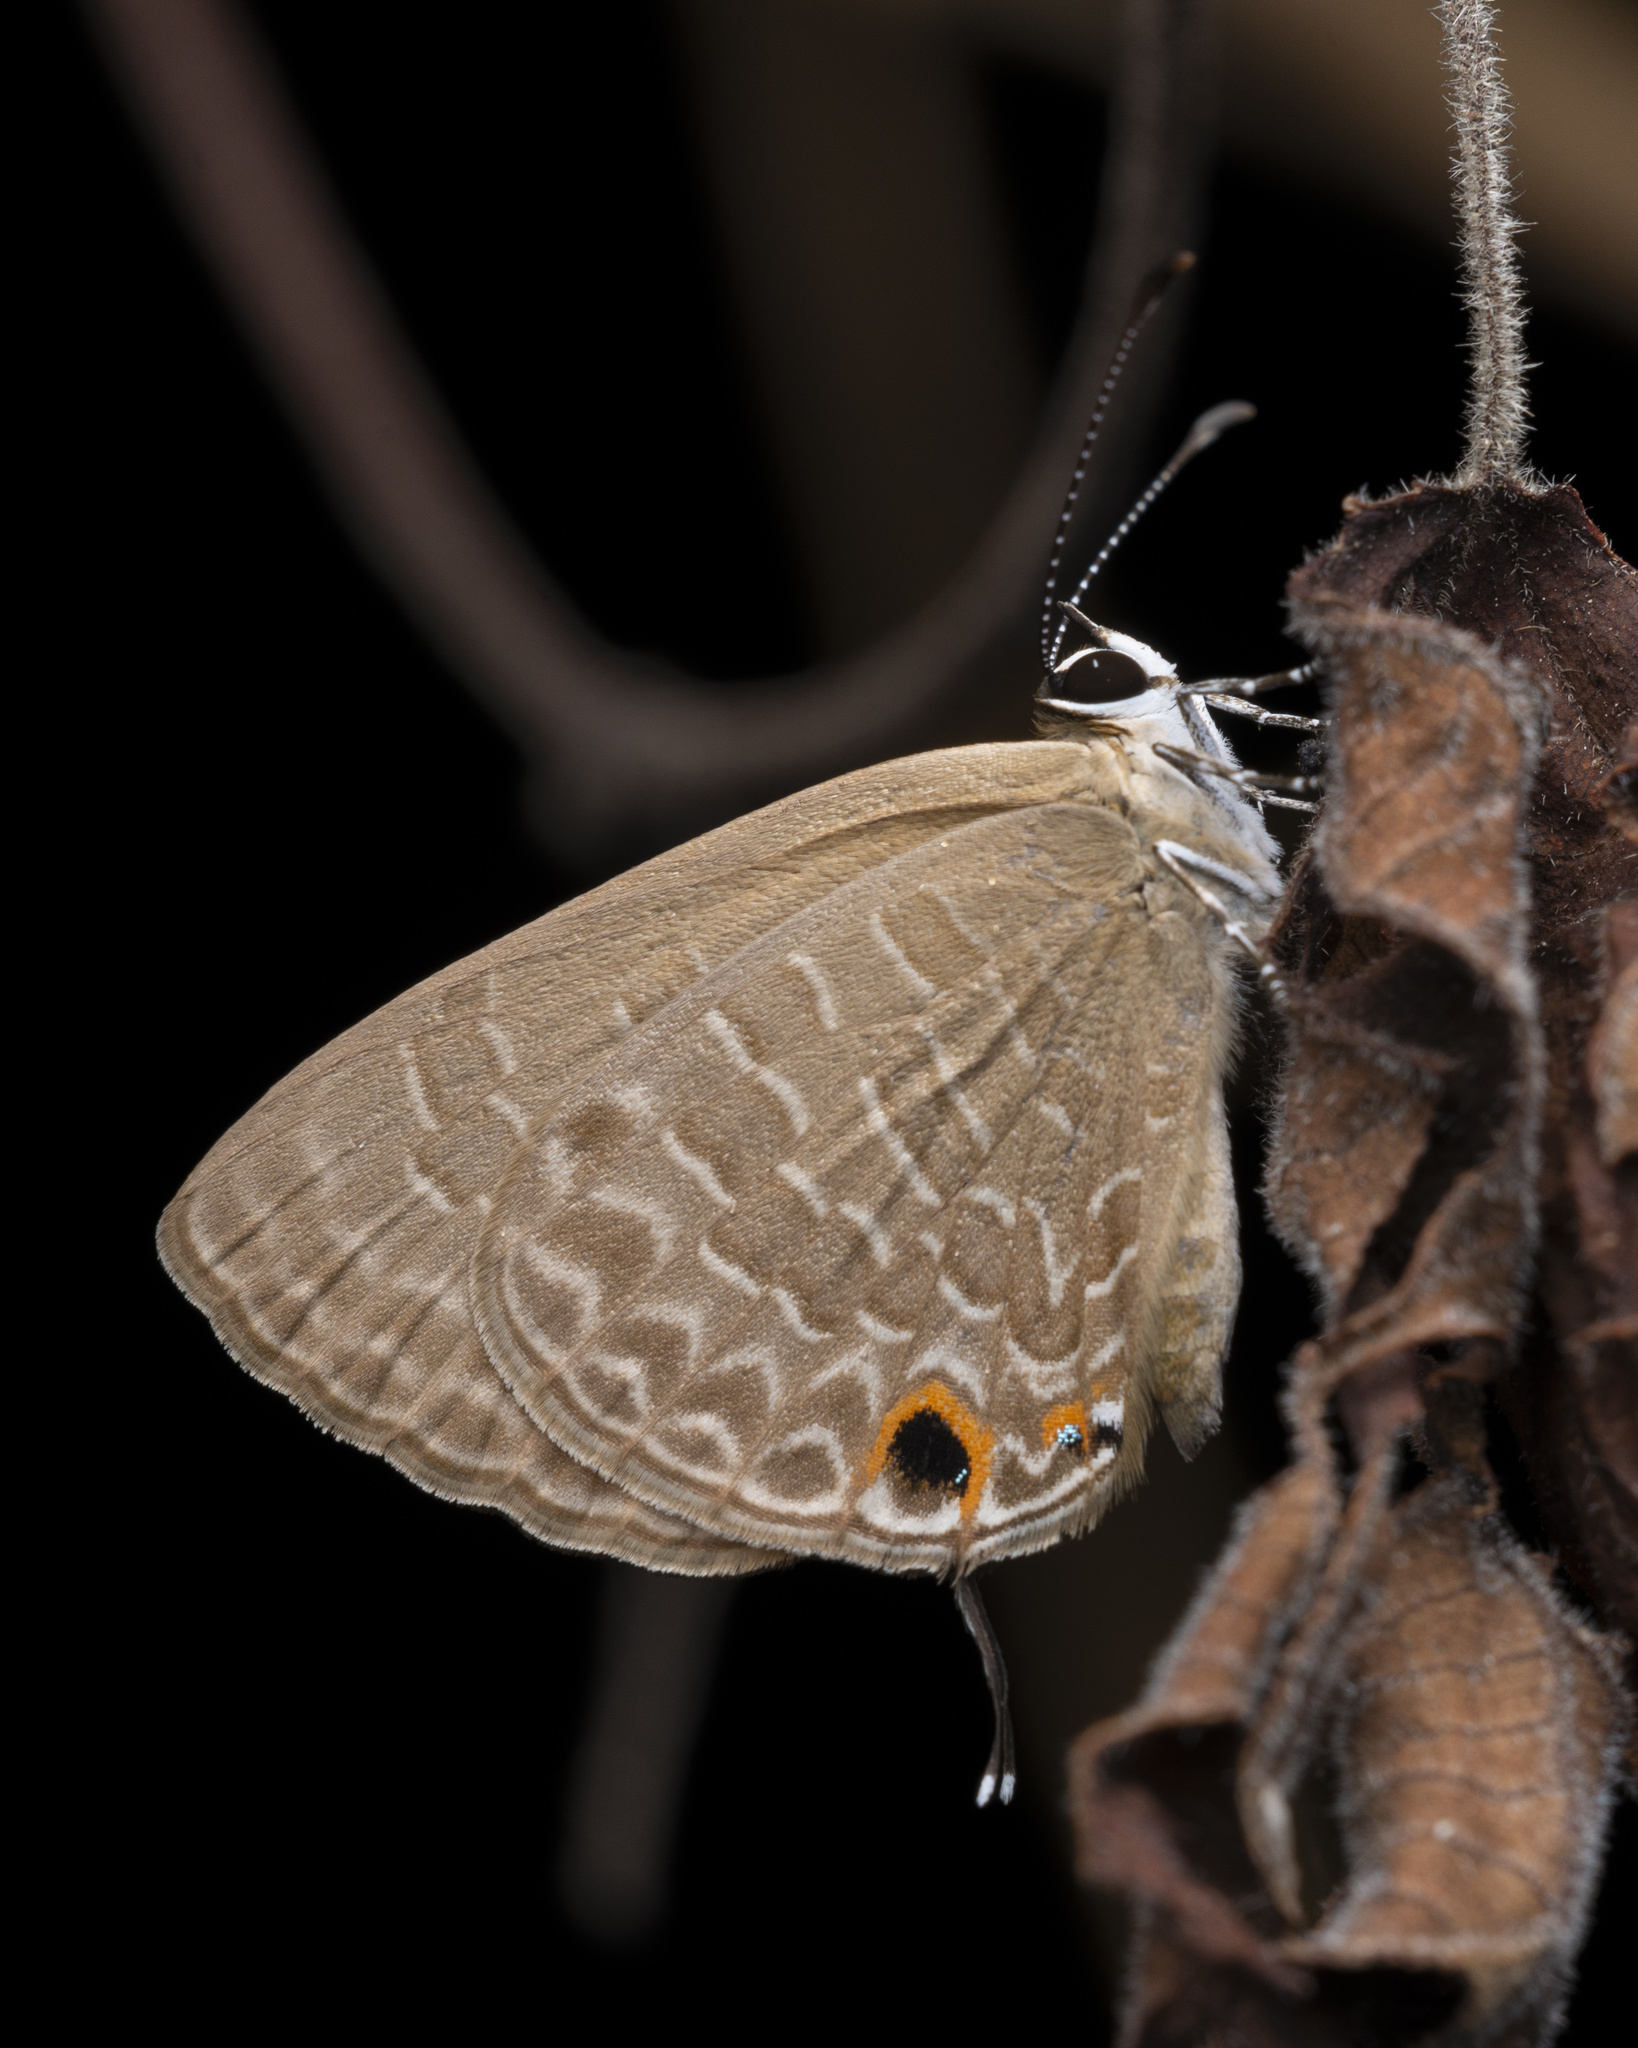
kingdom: Animalia
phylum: Arthropoda
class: Insecta
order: Lepidoptera
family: Lycaenidae
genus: Jamides
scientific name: Jamides bochus
